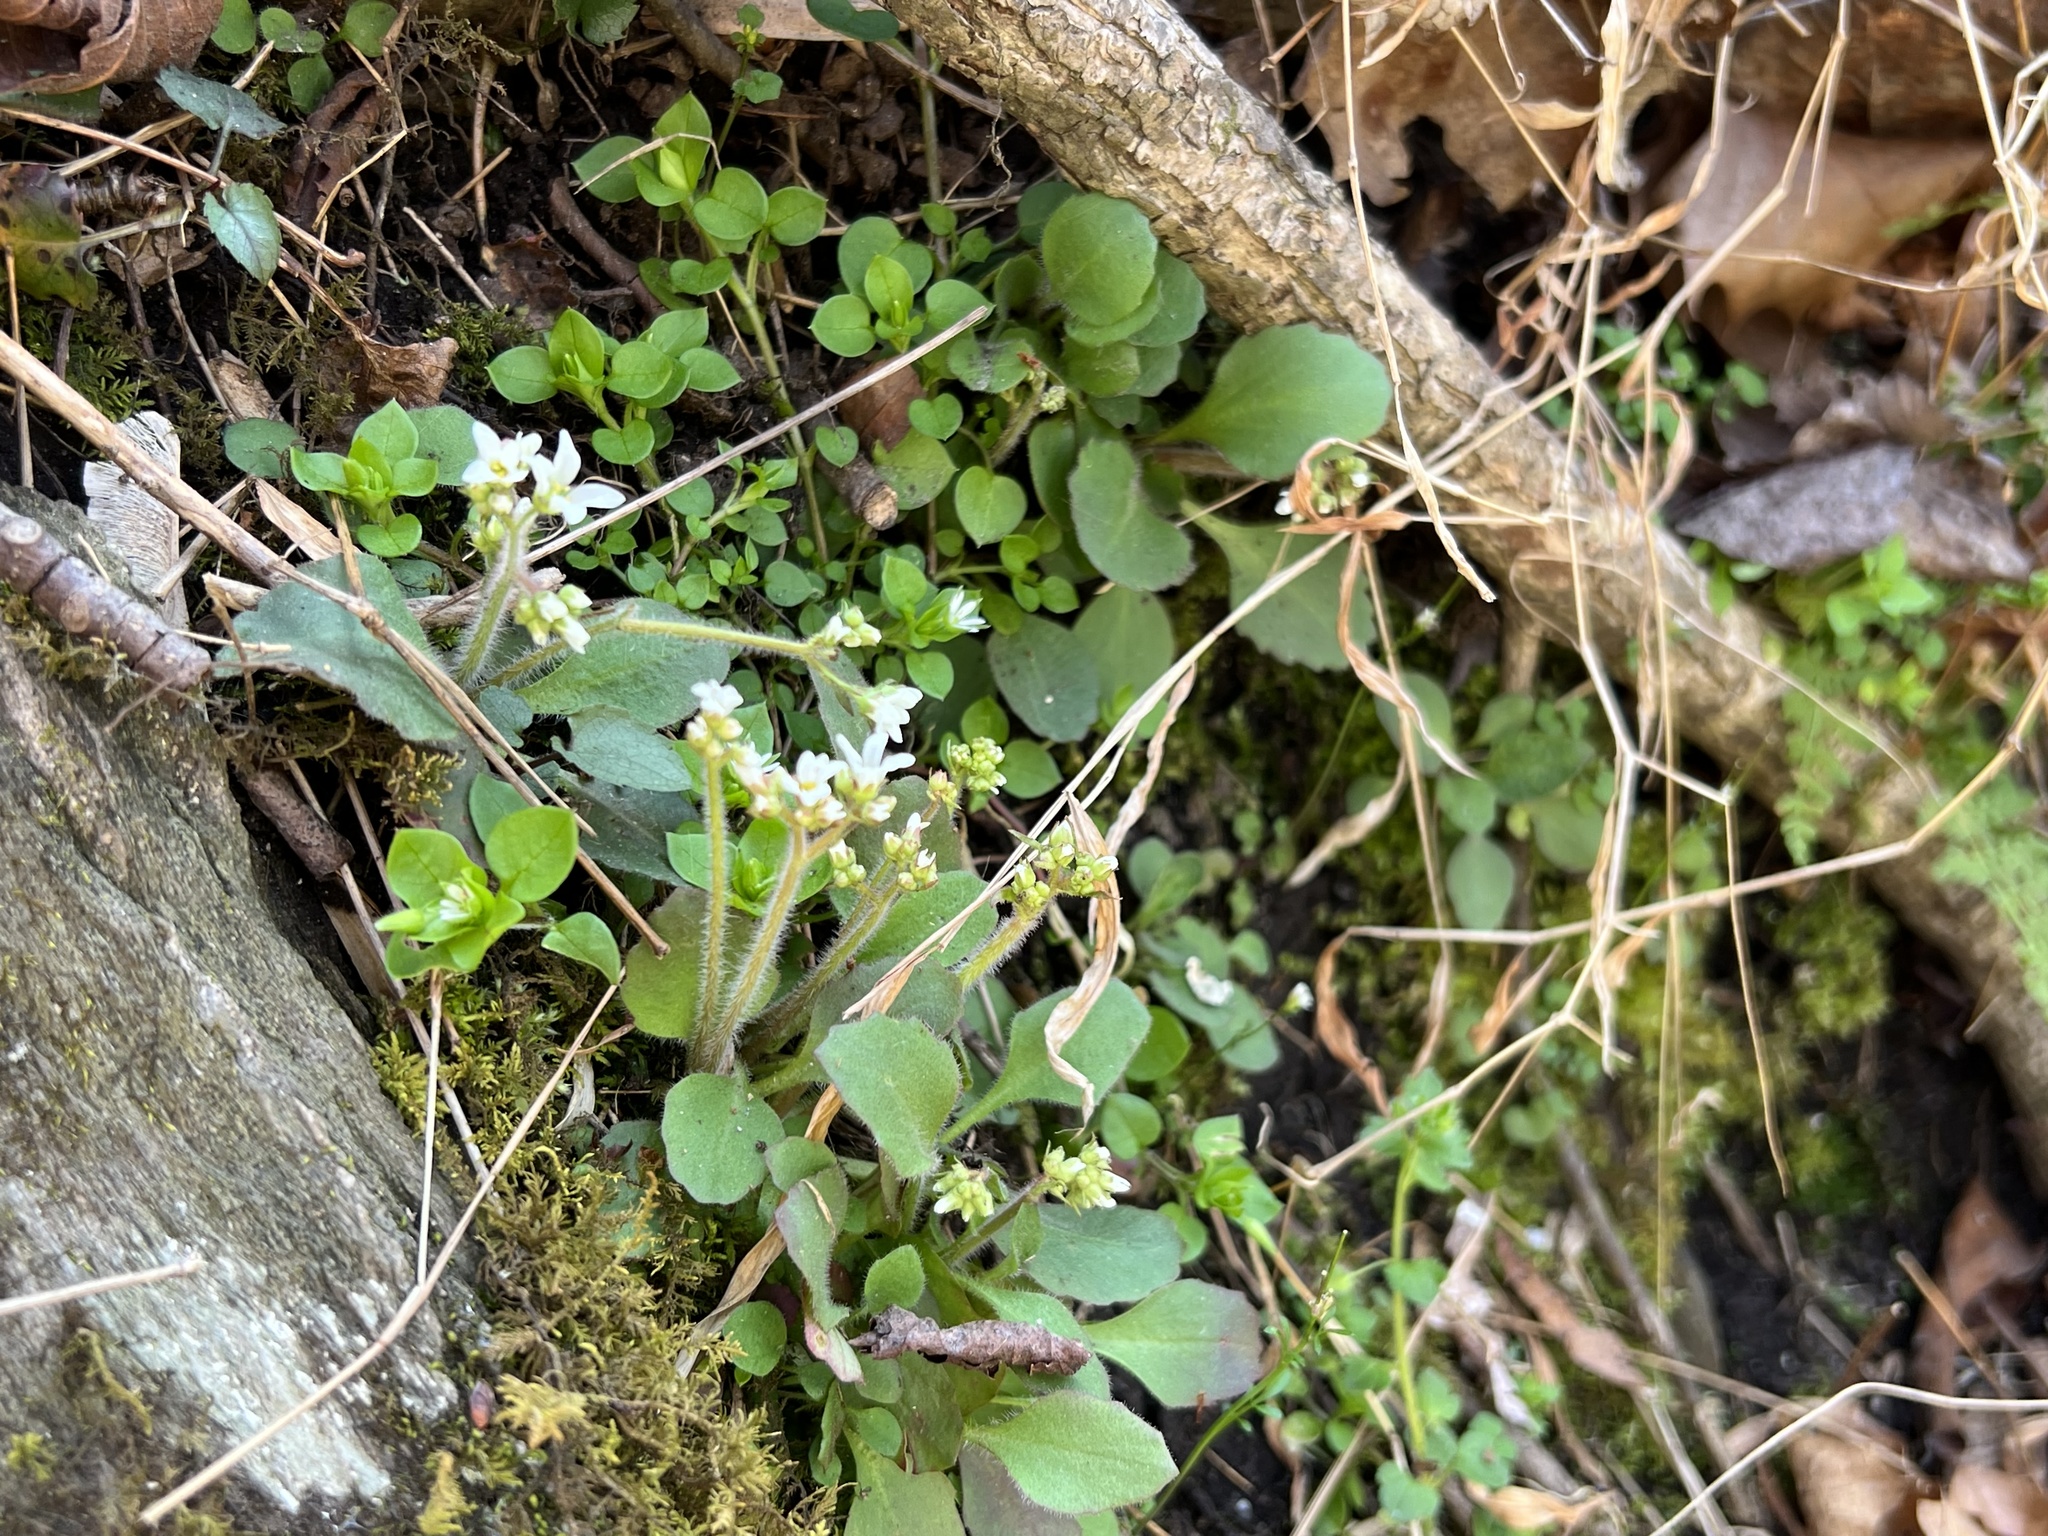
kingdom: Plantae
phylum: Tracheophyta
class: Magnoliopsida
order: Saxifragales
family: Saxifragaceae
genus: Micranthes
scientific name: Micranthes virginiensis
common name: Early saxifrage
